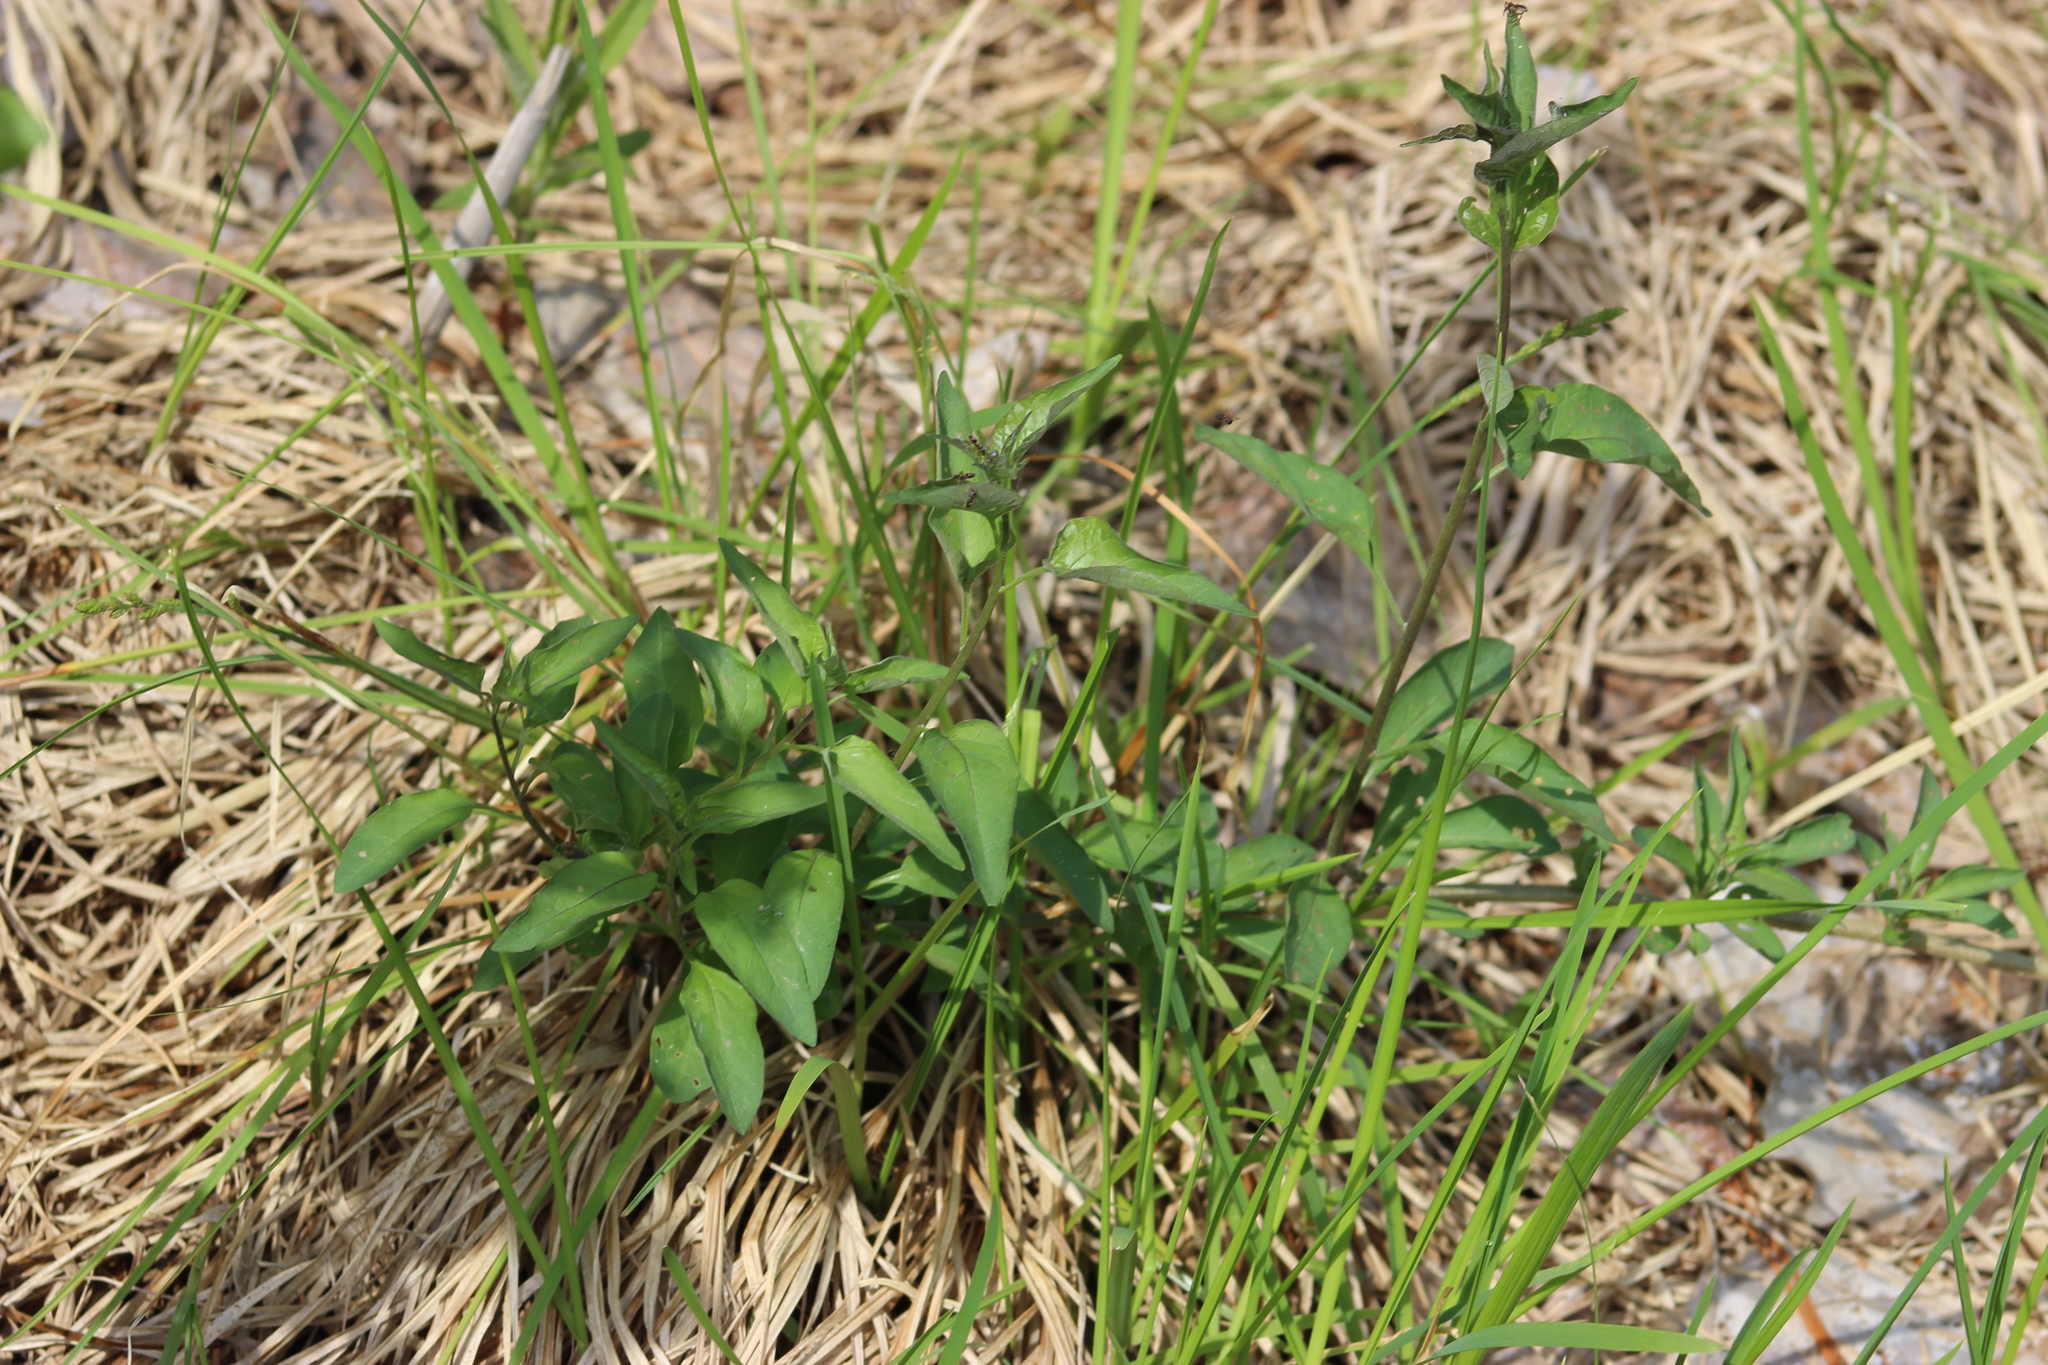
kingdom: Plantae
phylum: Tracheophyta
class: Magnoliopsida
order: Solanales
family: Solanaceae
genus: Solanum
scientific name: Solanum dulcamara
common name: Climbing nightshade
